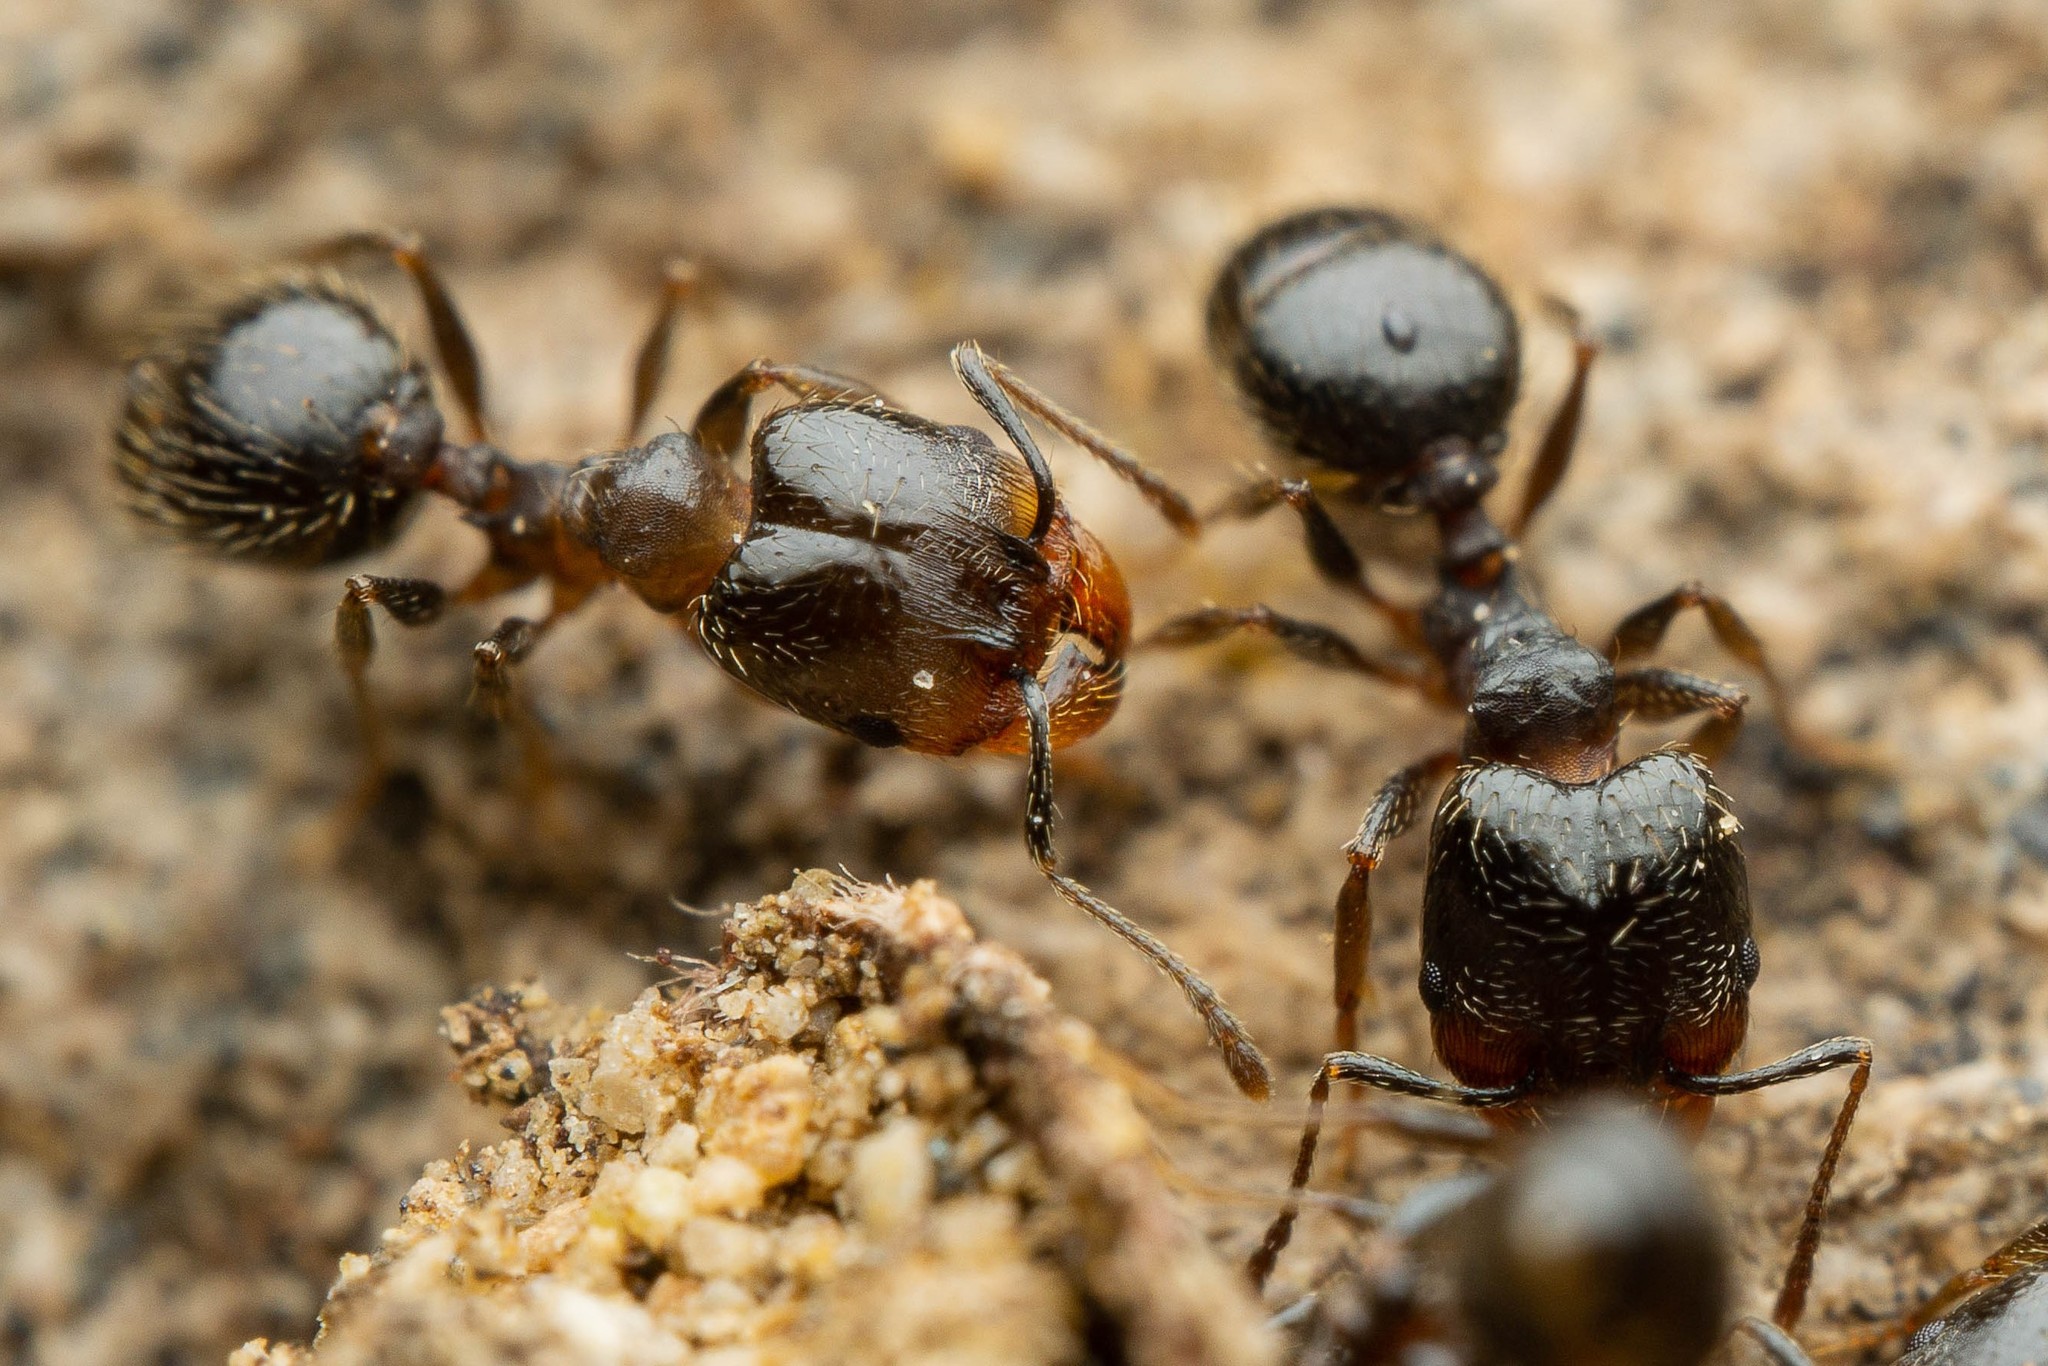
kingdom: Animalia
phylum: Arthropoda
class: Insecta
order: Hymenoptera
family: Formicidae
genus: Pheidole
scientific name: Pheidole sciophila
